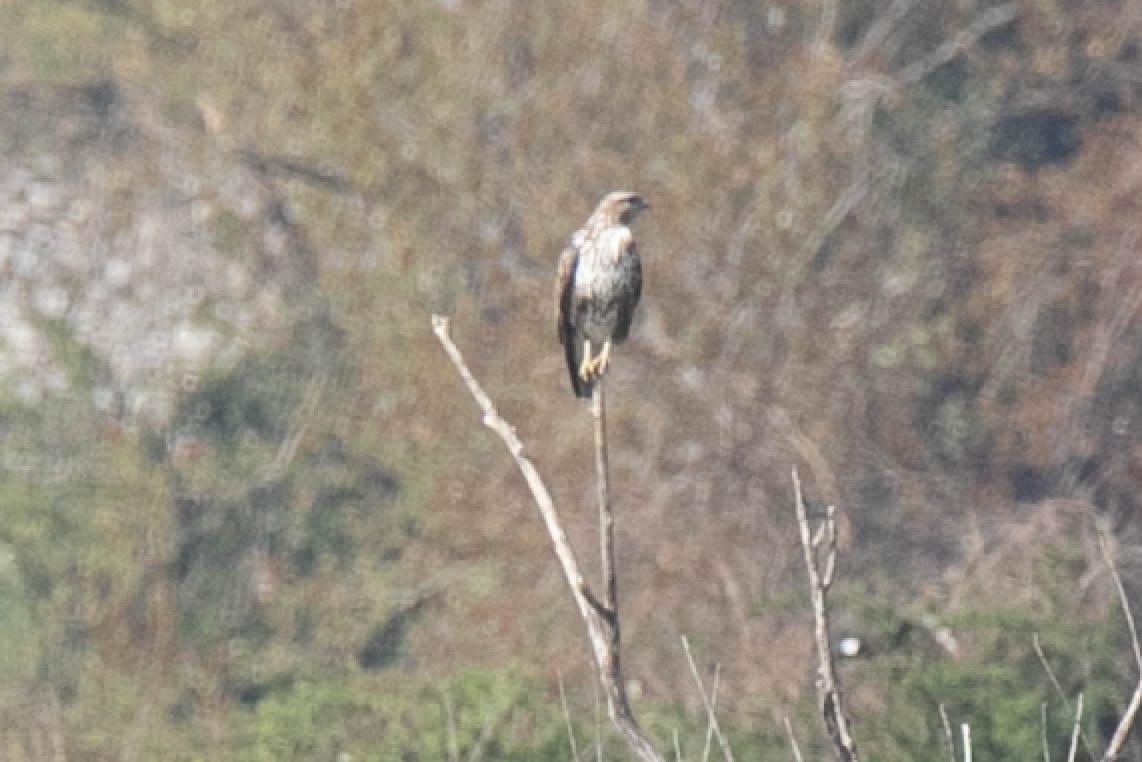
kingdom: Animalia
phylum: Chordata
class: Aves
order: Accipitriformes
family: Accipitridae
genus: Buteo
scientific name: Buteo buteo
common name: Common buzzard
